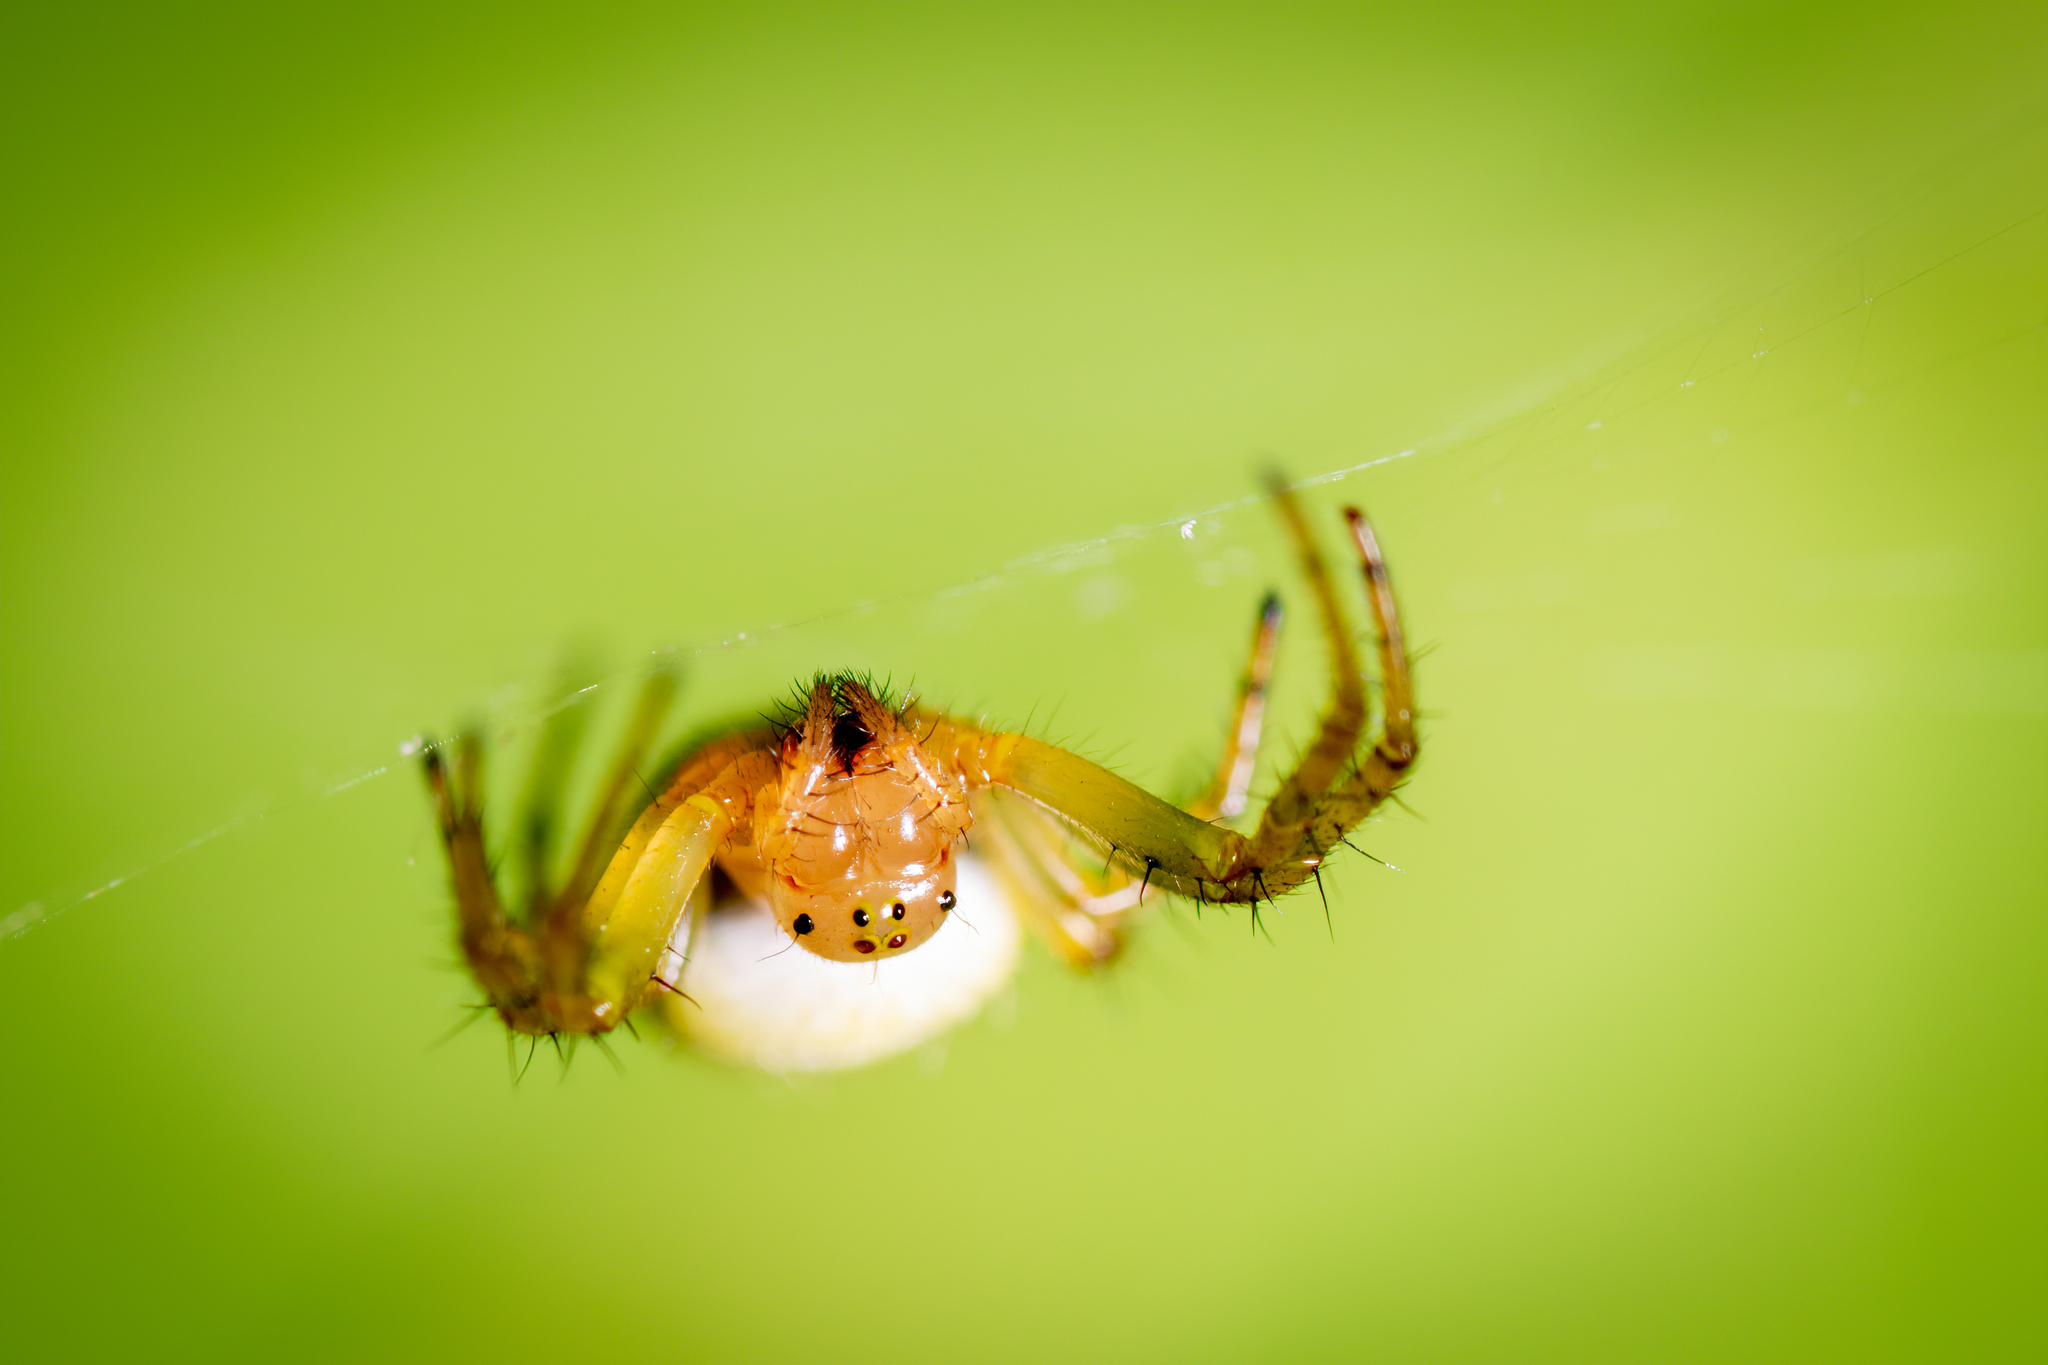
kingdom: Animalia
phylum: Arthropoda
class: Arachnida
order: Araneae
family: Araneidae
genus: Araniella
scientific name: Araniella displicata
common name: Sixspotted orb weaver
